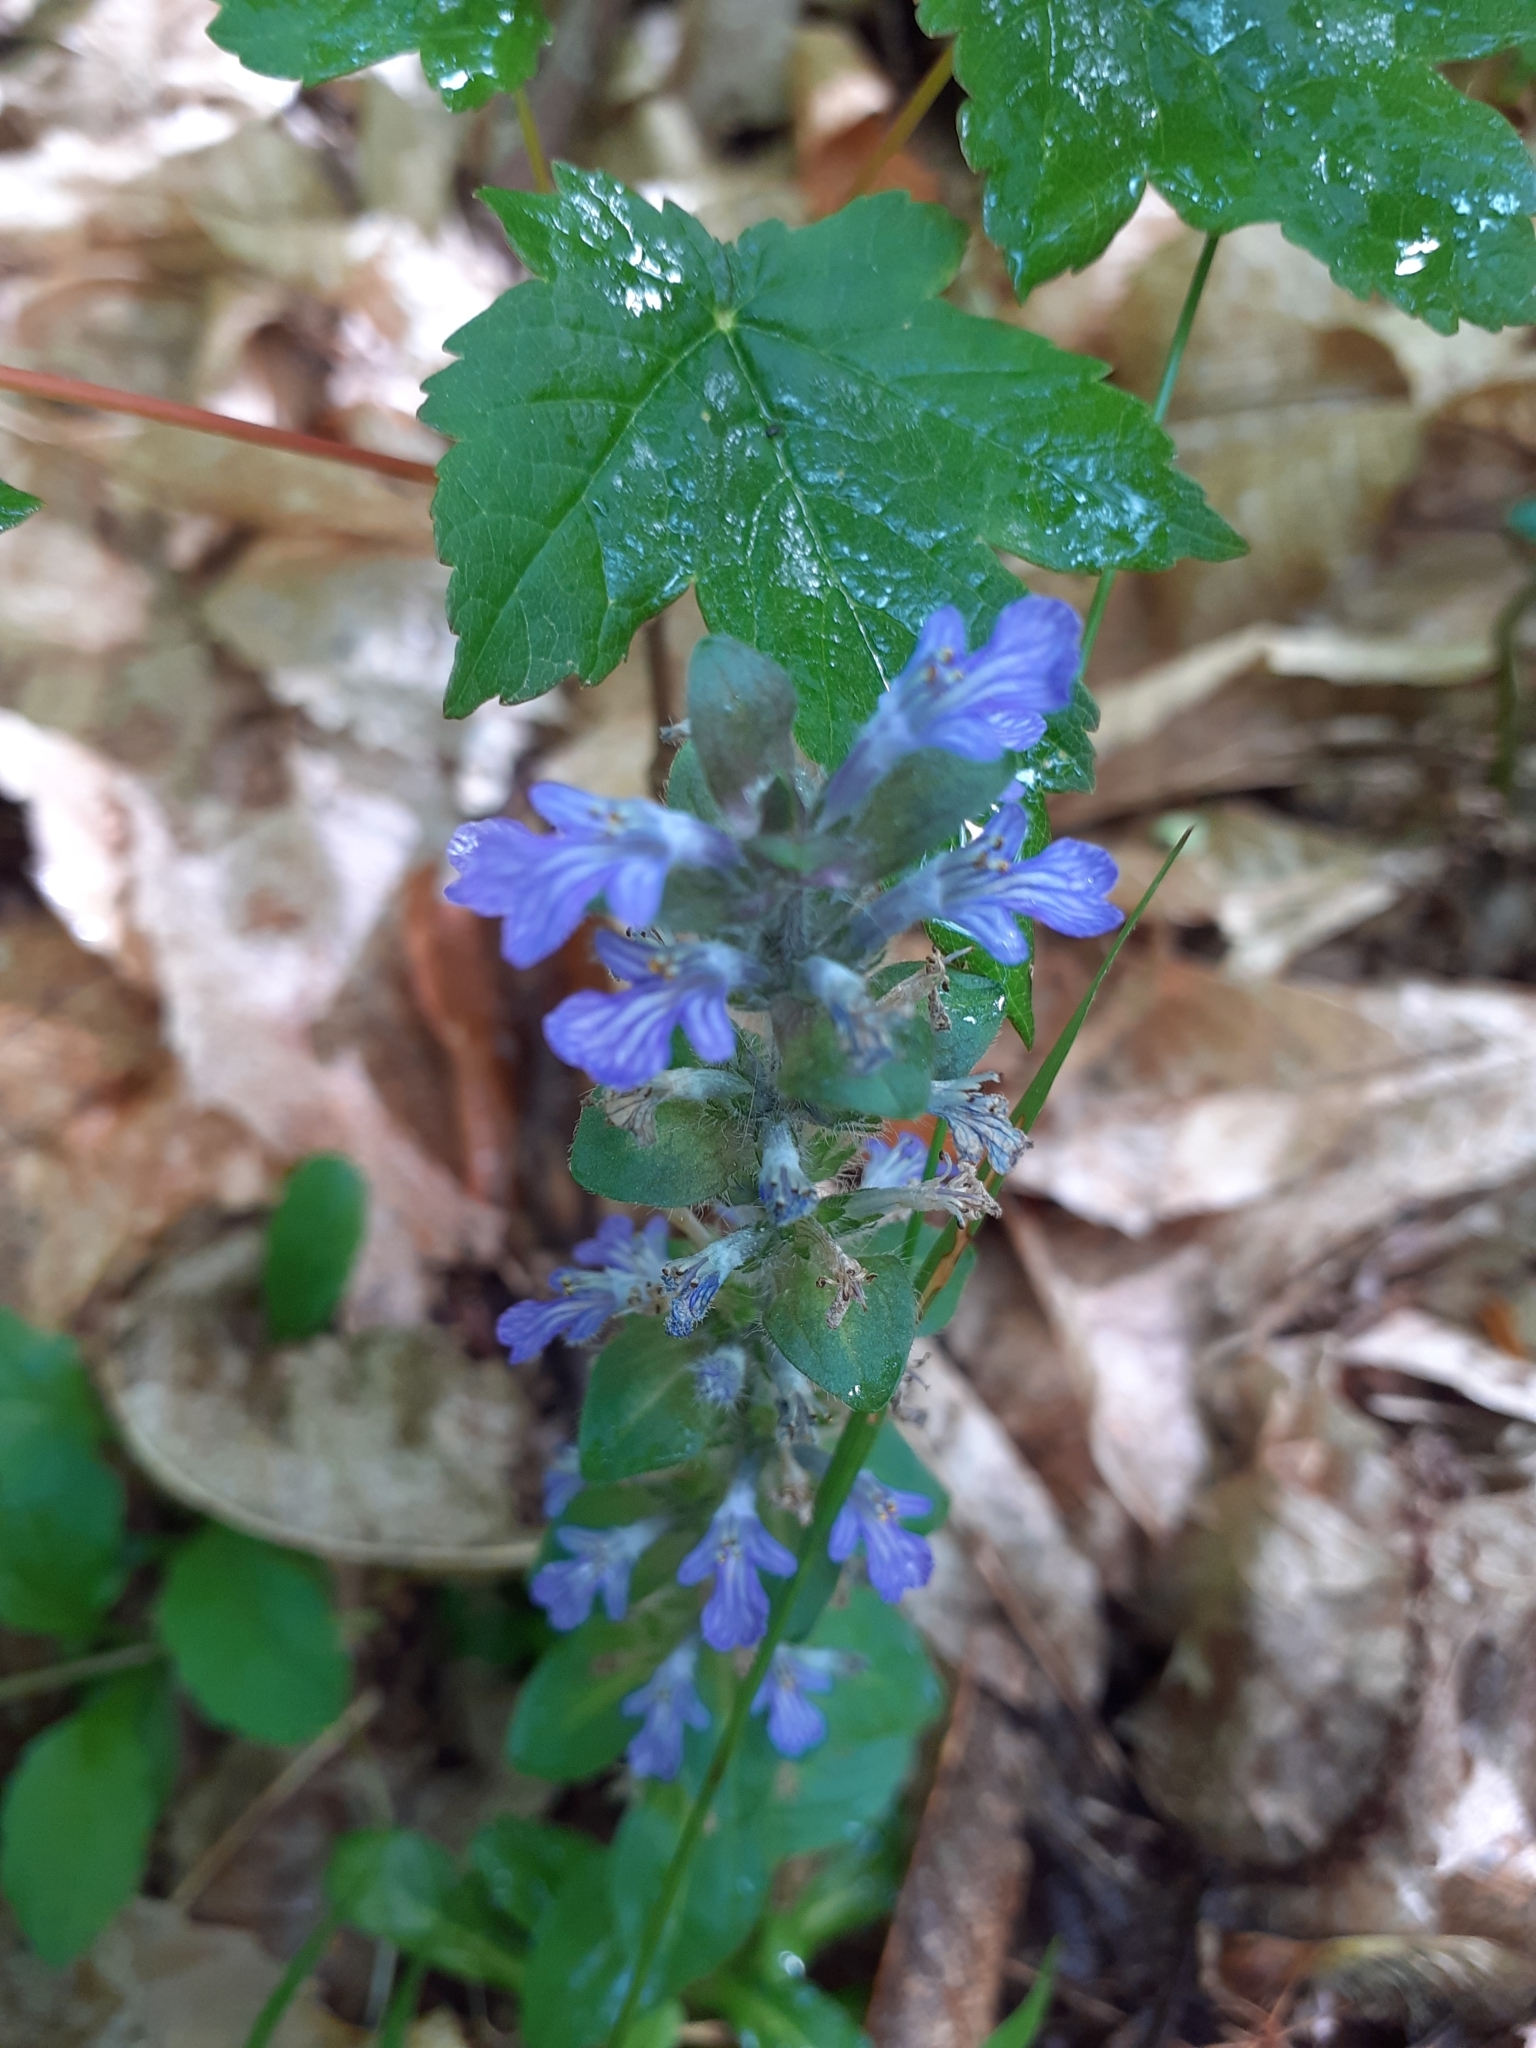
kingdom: Plantae
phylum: Tracheophyta
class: Magnoliopsida
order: Lamiales
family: Lamiaceae
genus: Ajuga
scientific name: Ajuga reptans
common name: Bugle
